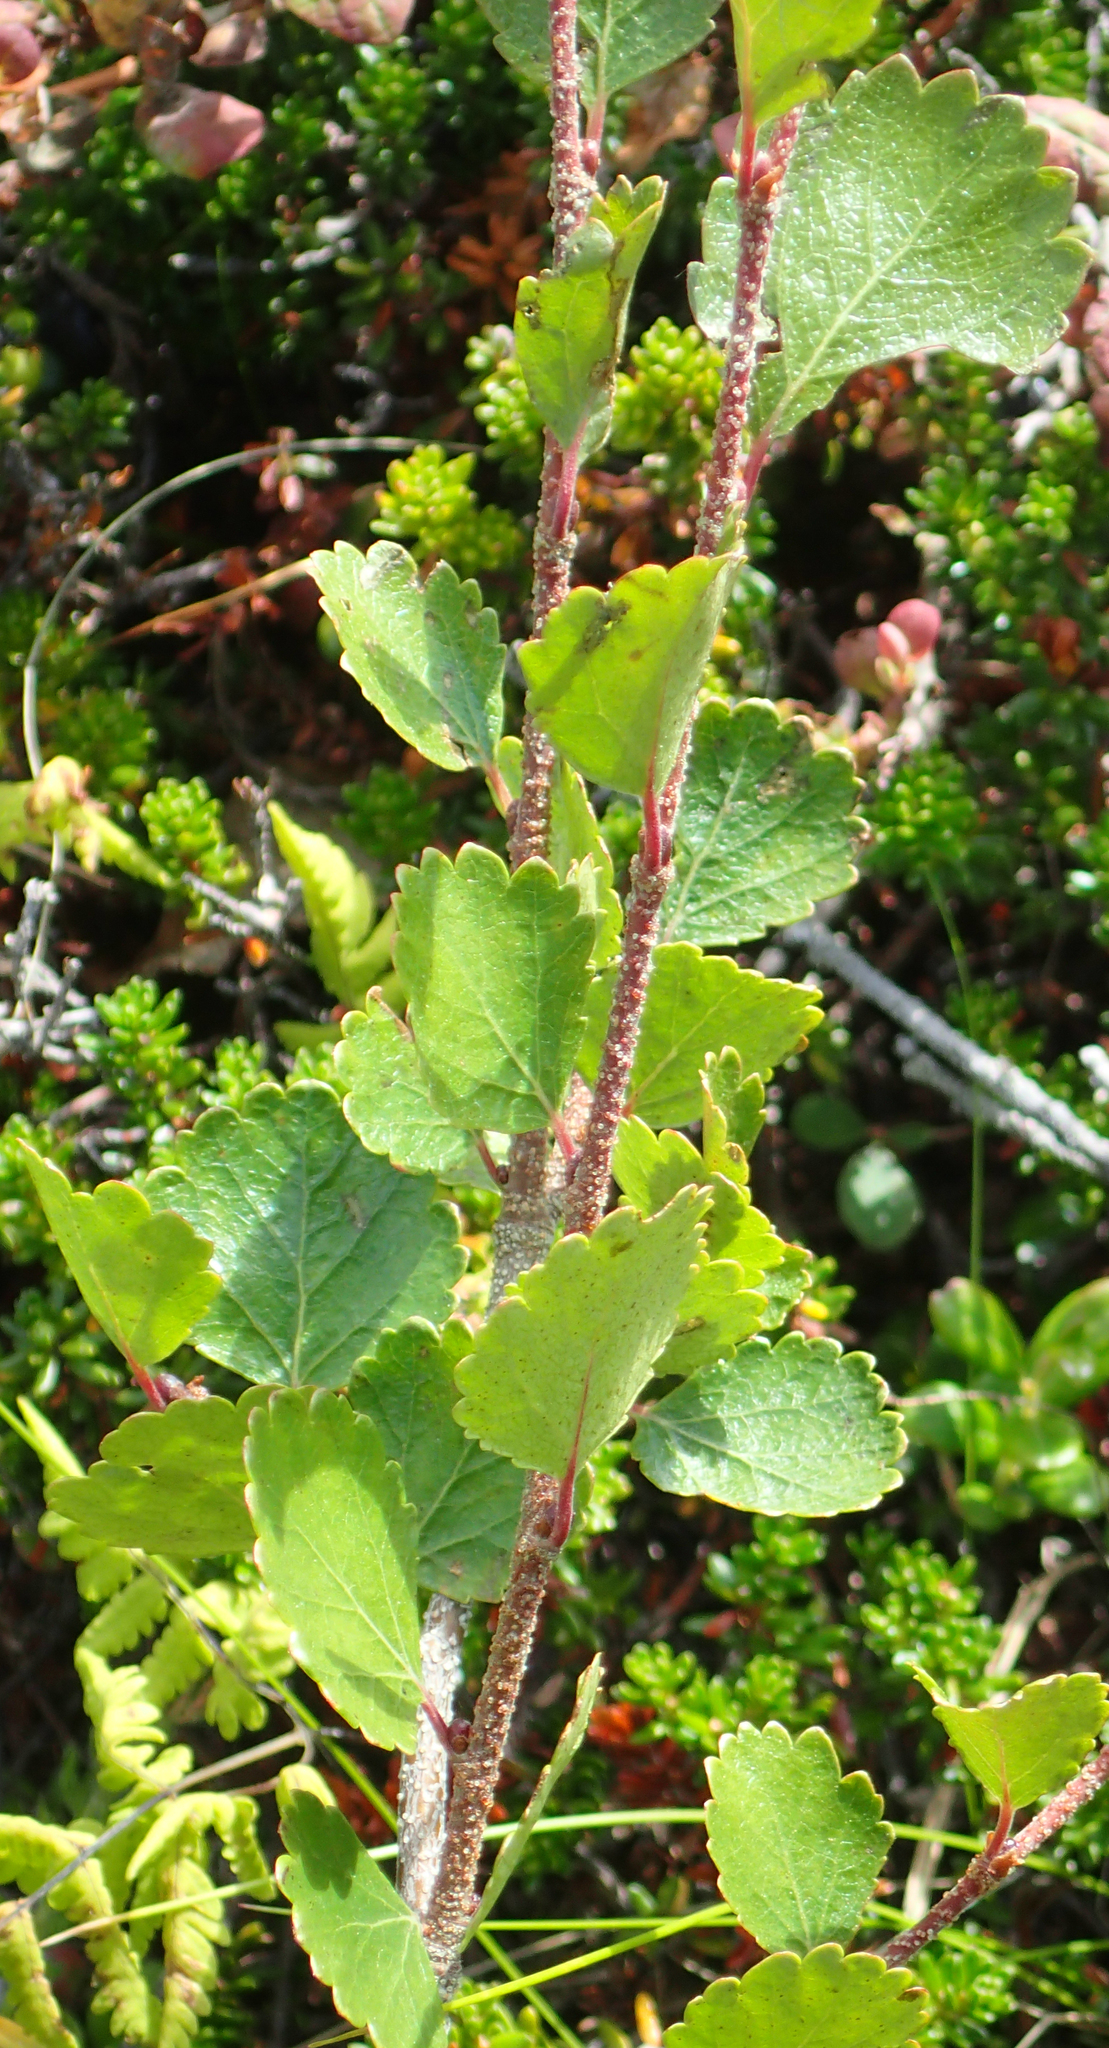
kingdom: Plantae
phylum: Tracheophyta
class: Magnoliopsida
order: Fagales
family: Betulaceae
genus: Betula
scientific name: Betula glandulosa
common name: Dwarf birch
